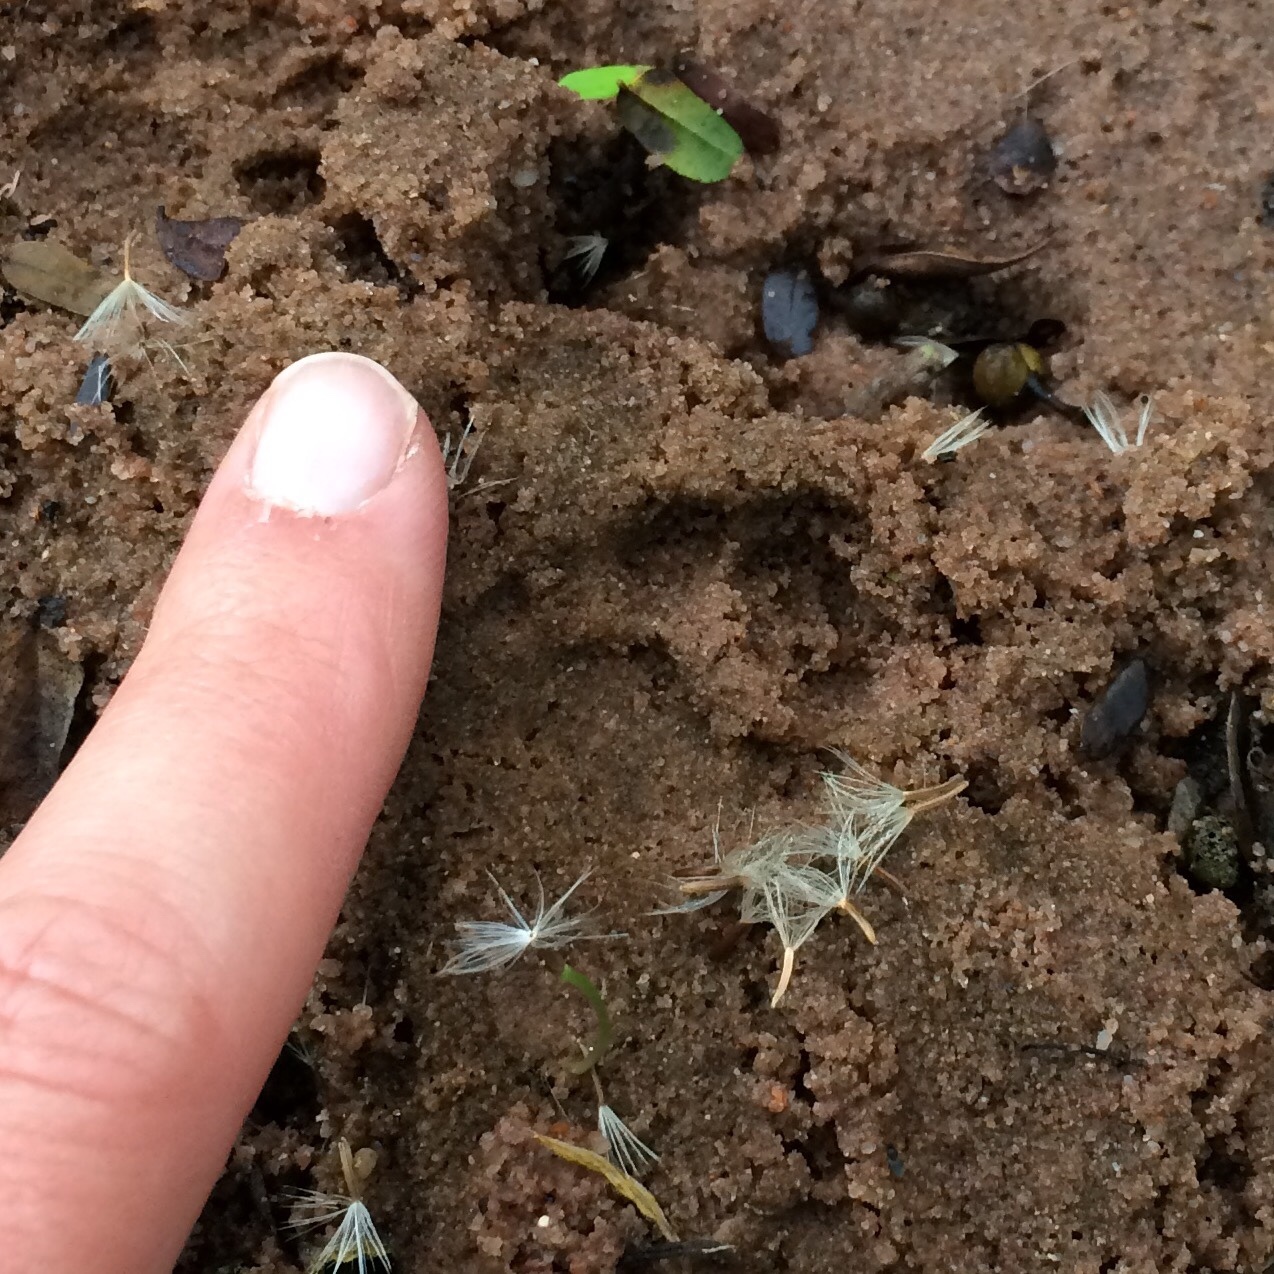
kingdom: Animalia
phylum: Chordata
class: Mammalia
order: Carnivora
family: Viverridae
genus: Genetta
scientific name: Genetta maculata
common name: Rusty-spotted genet
